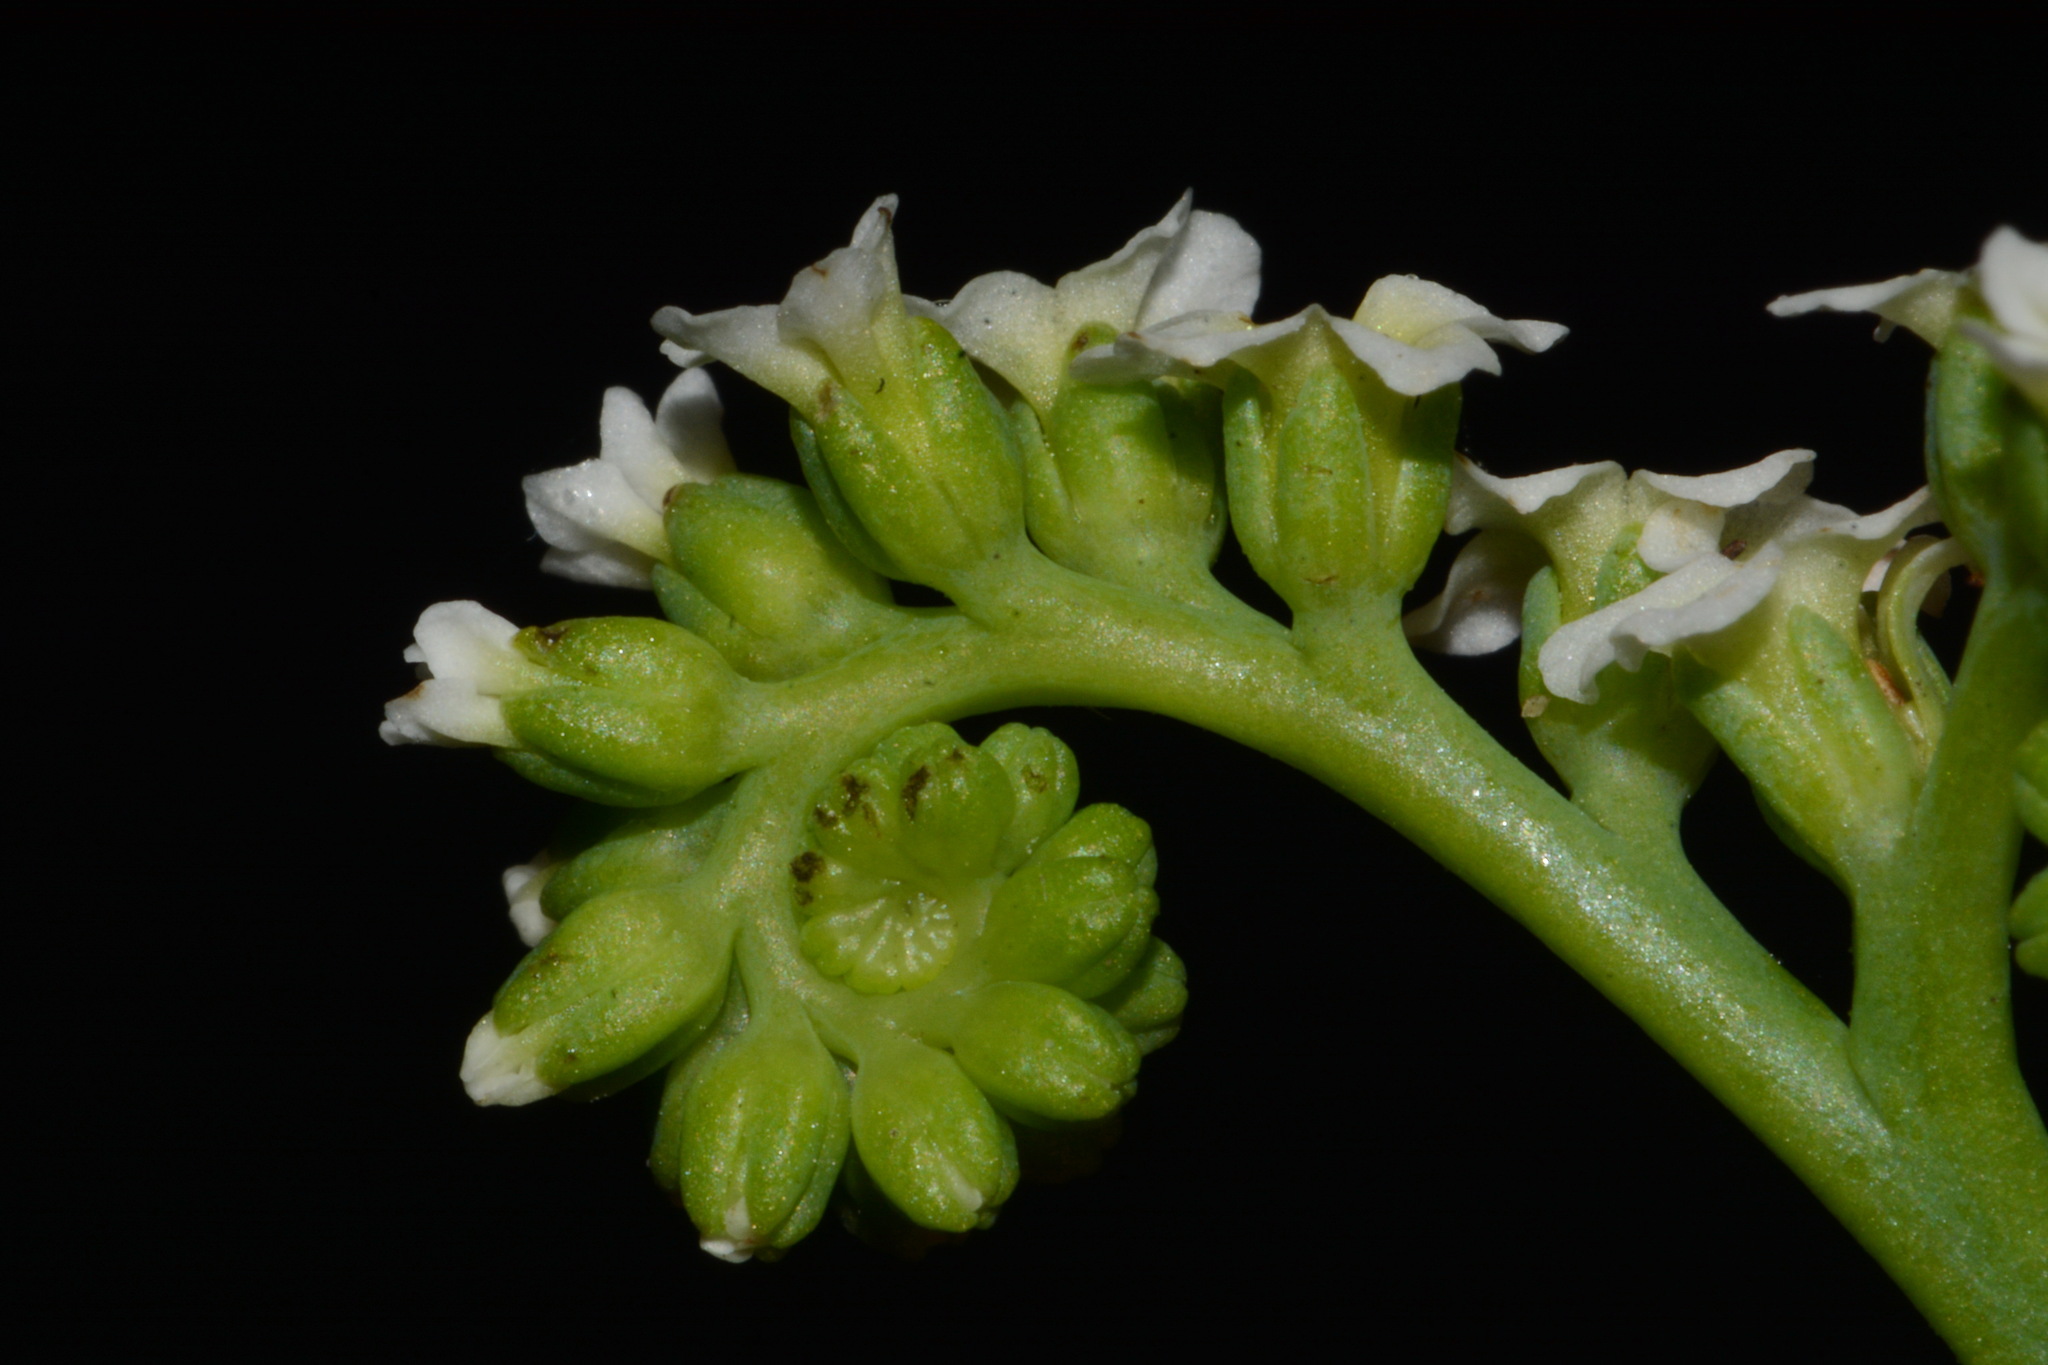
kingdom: Plantae
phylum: Tracheophyta
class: Magnoliopsida
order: Boraginales
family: Heliotropiaceae
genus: Heliotropium
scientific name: Heliotropium curassavicum
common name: Seaside heliotrope
